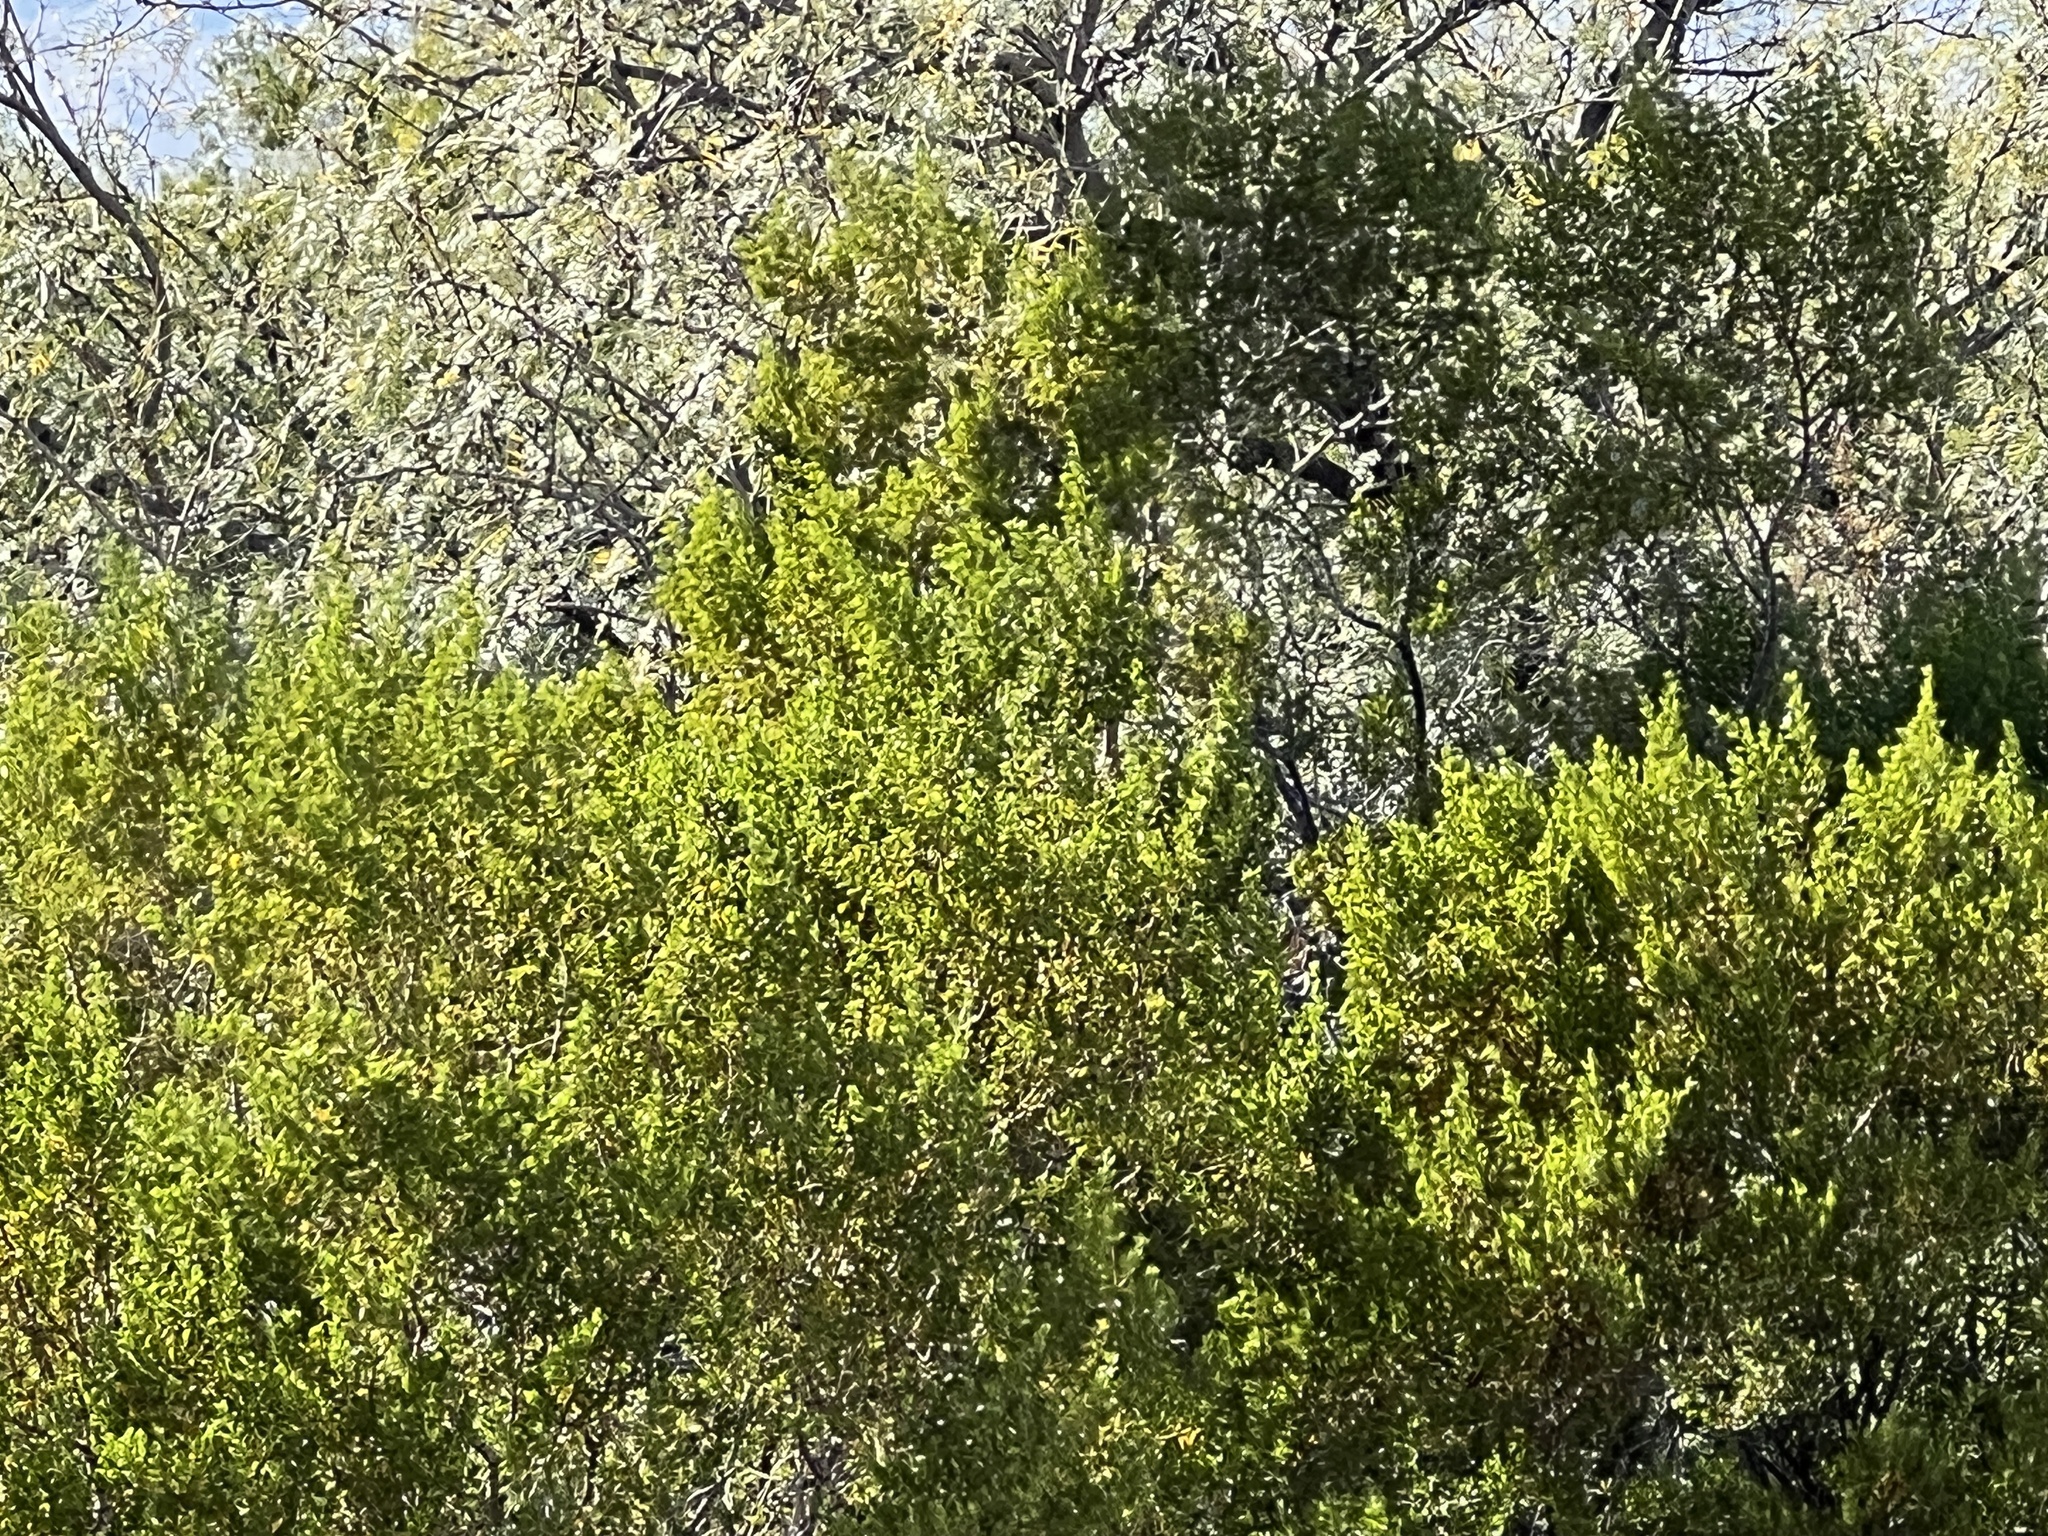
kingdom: Plantae
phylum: Tracheophyta
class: Magnoliopsida
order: Zygophyllales
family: Zygophyllaceae
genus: Larrea
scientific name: Larrea tridentata
